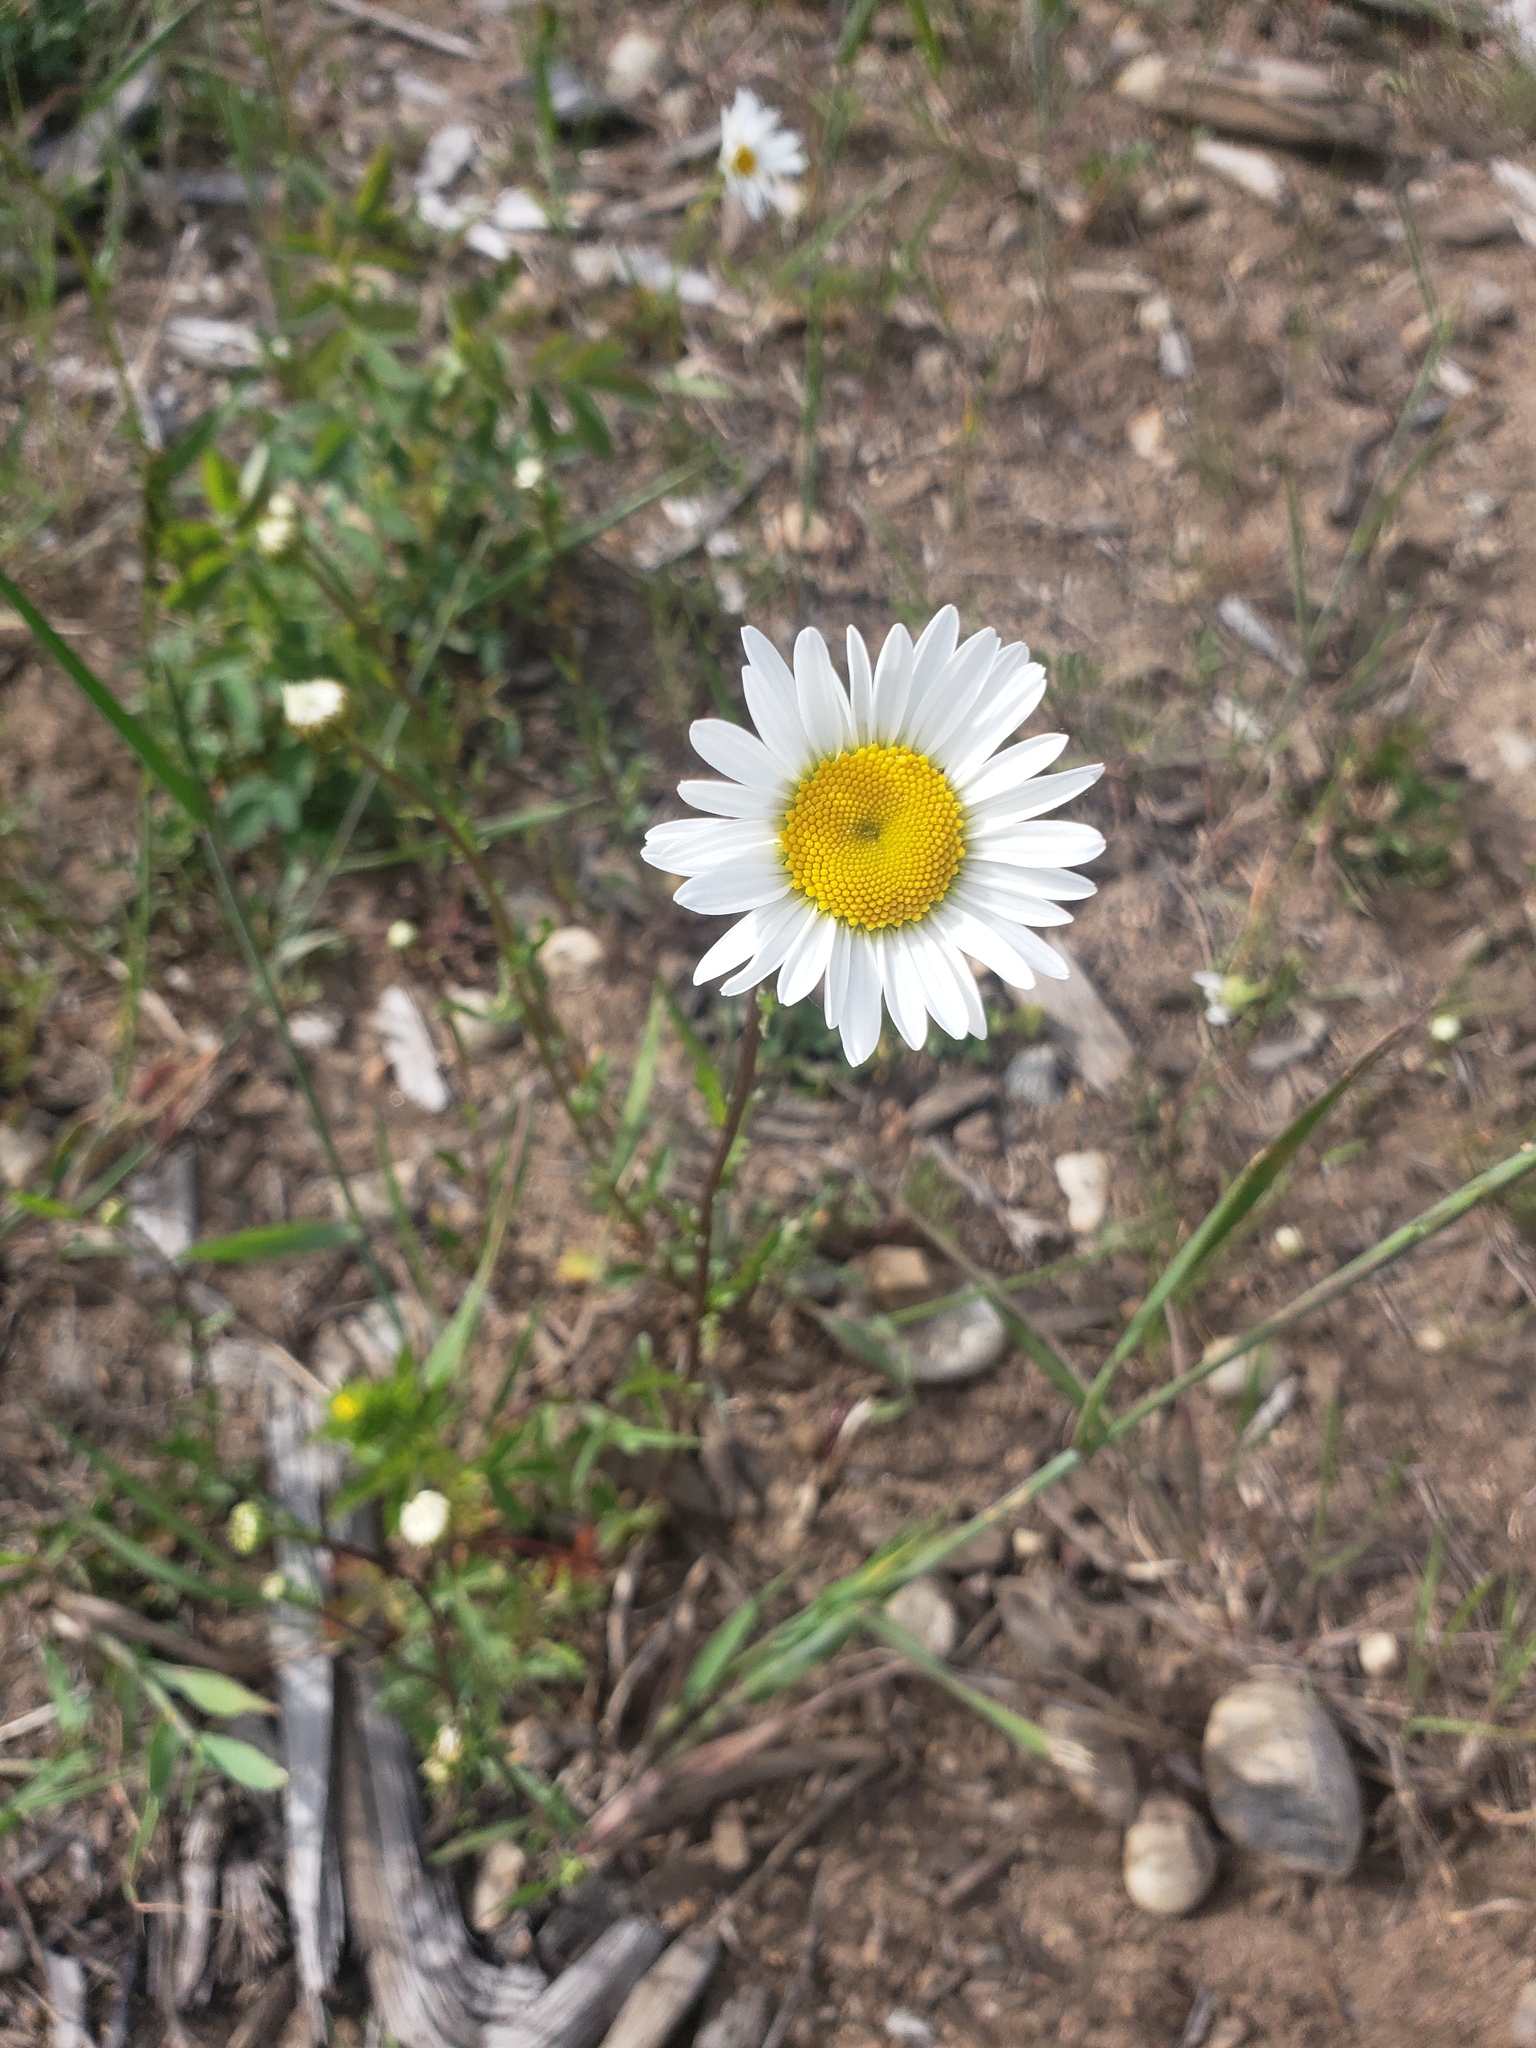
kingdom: Plantae
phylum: Tracheophyta
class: Magnoliopsida
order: Asterales
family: Asteraceae
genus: Leucanthemum
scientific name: Leucanthemum vulgare
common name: Oxeye daisy
